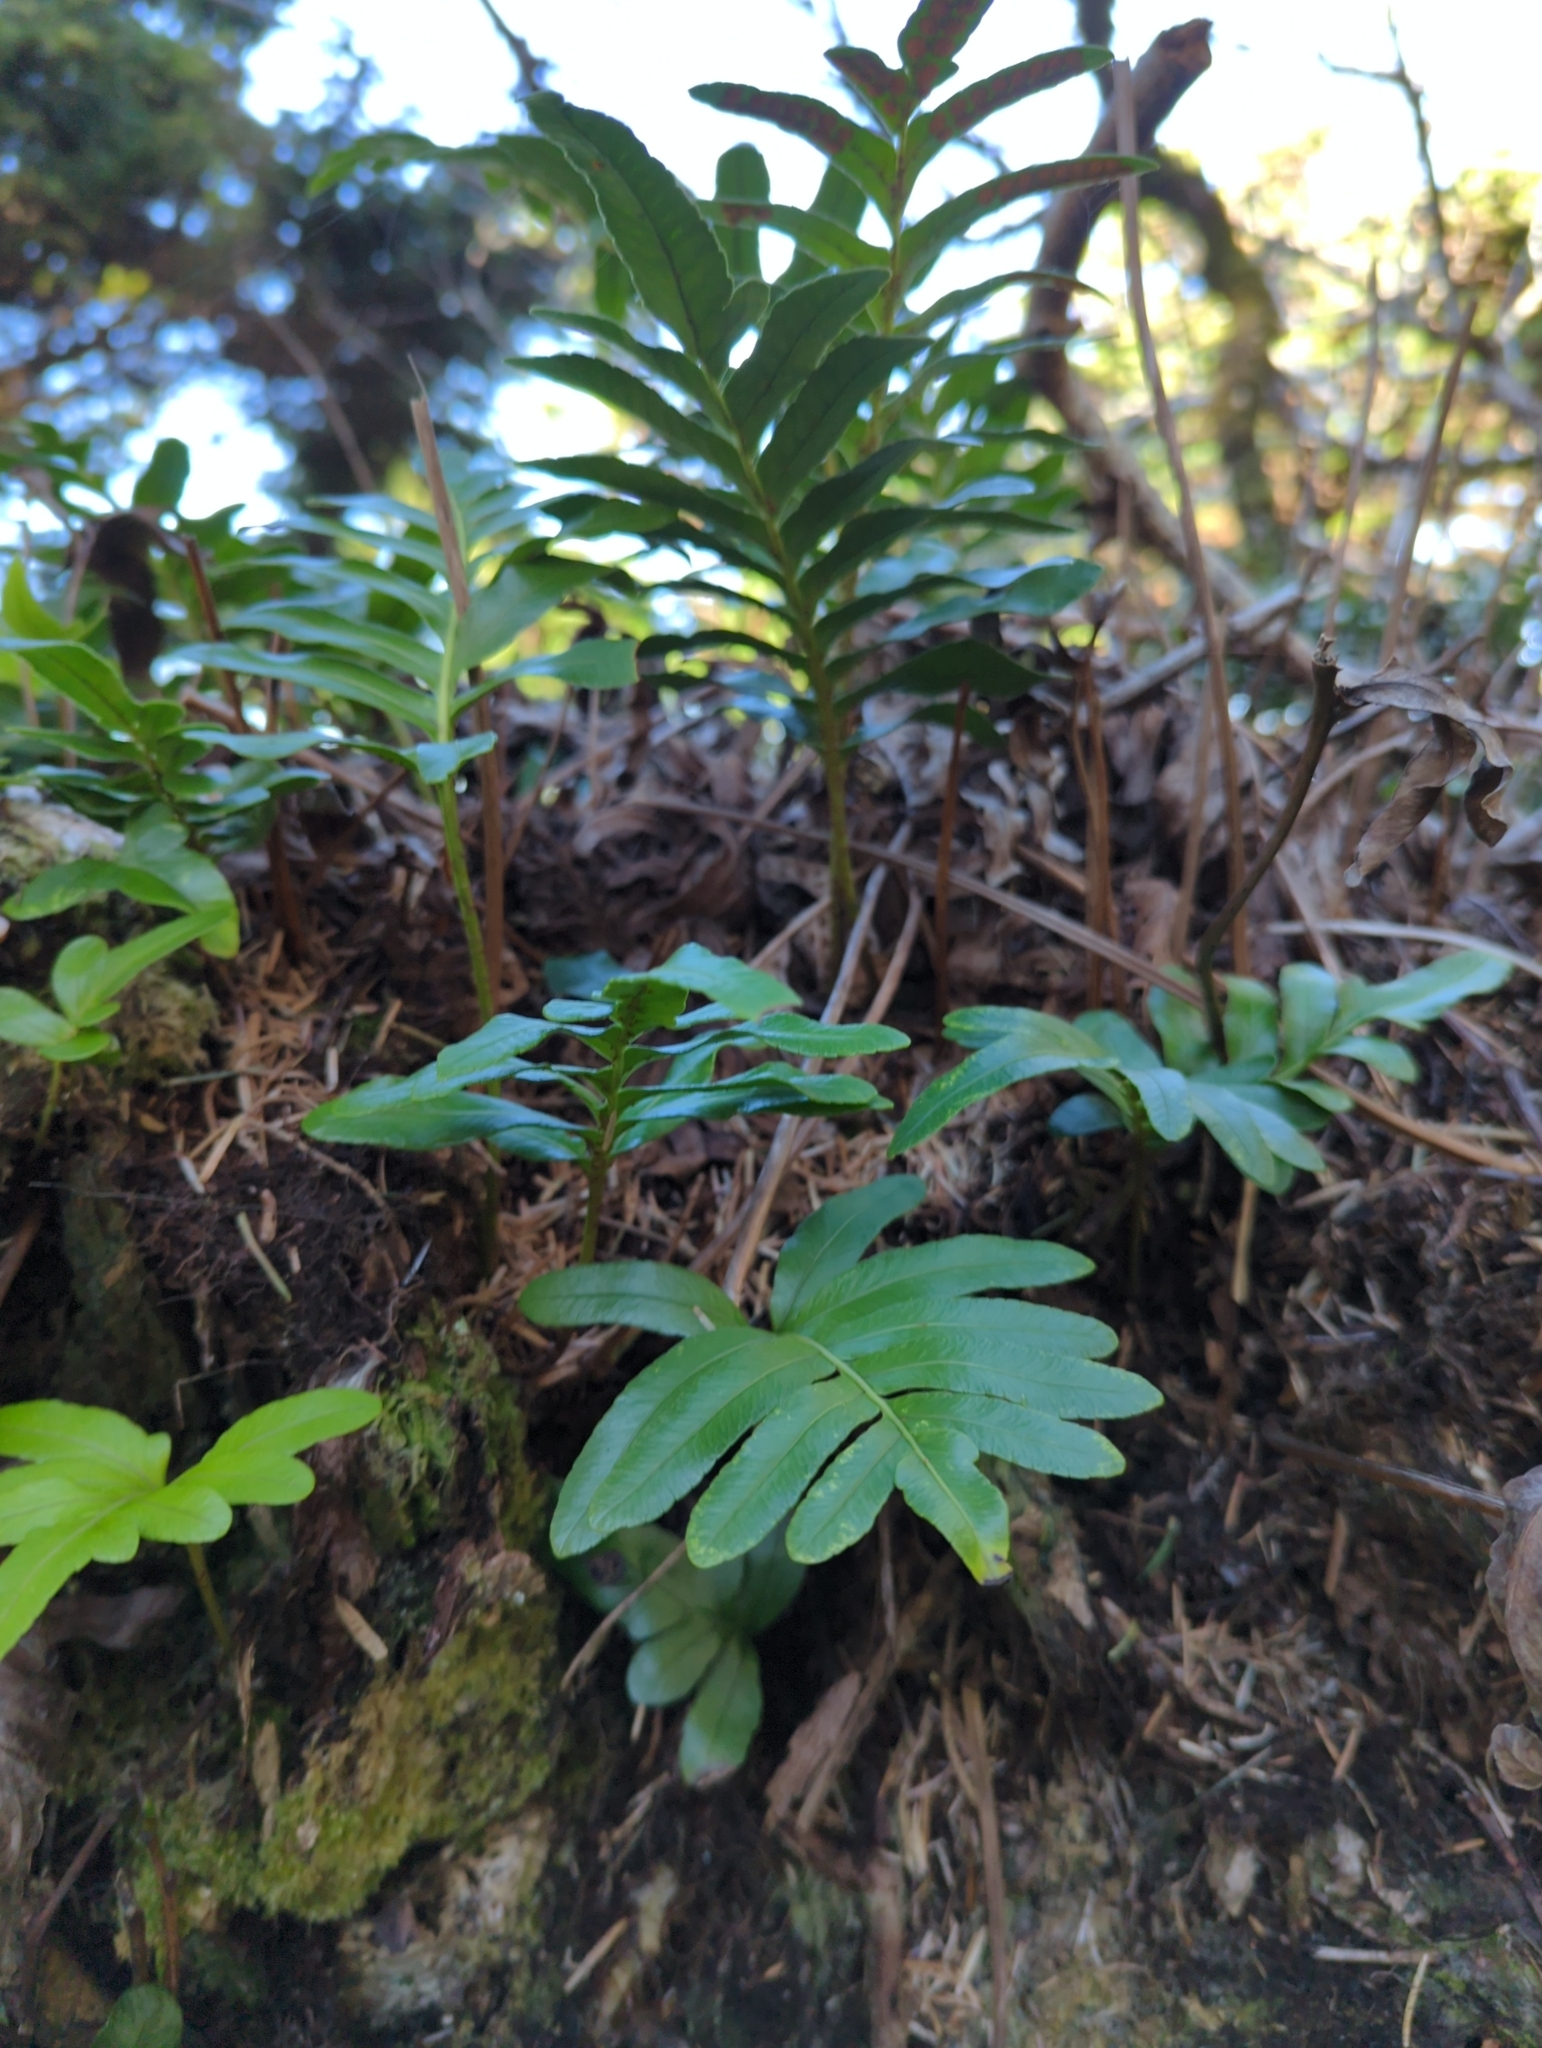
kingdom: Plantae
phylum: Tracheophyta
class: Polypodiopsida
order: Polypodiales
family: Polypodiaceae
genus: Polypodium
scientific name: Polypodium scouleri
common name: Scouler's polypody
